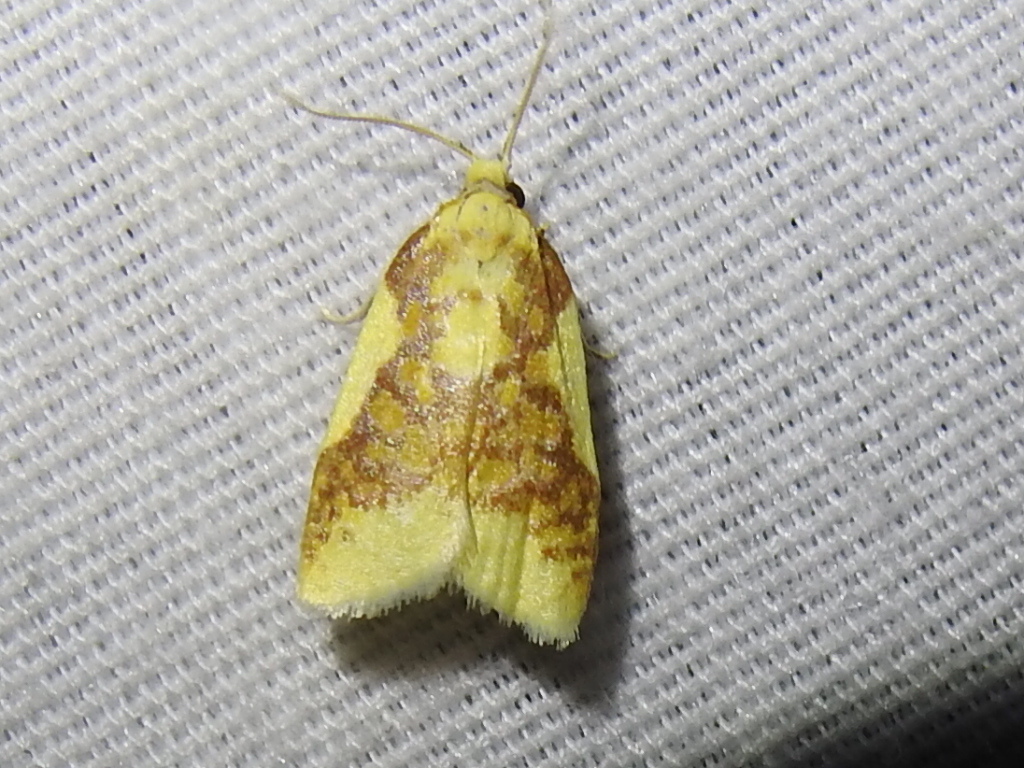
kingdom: Animalia
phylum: Arthropoda
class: Insecta
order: Lepidoptera
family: Tortricidae
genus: Sparganothis
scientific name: Sparganothis pulcherrimana
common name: Beautiful sparganothis
